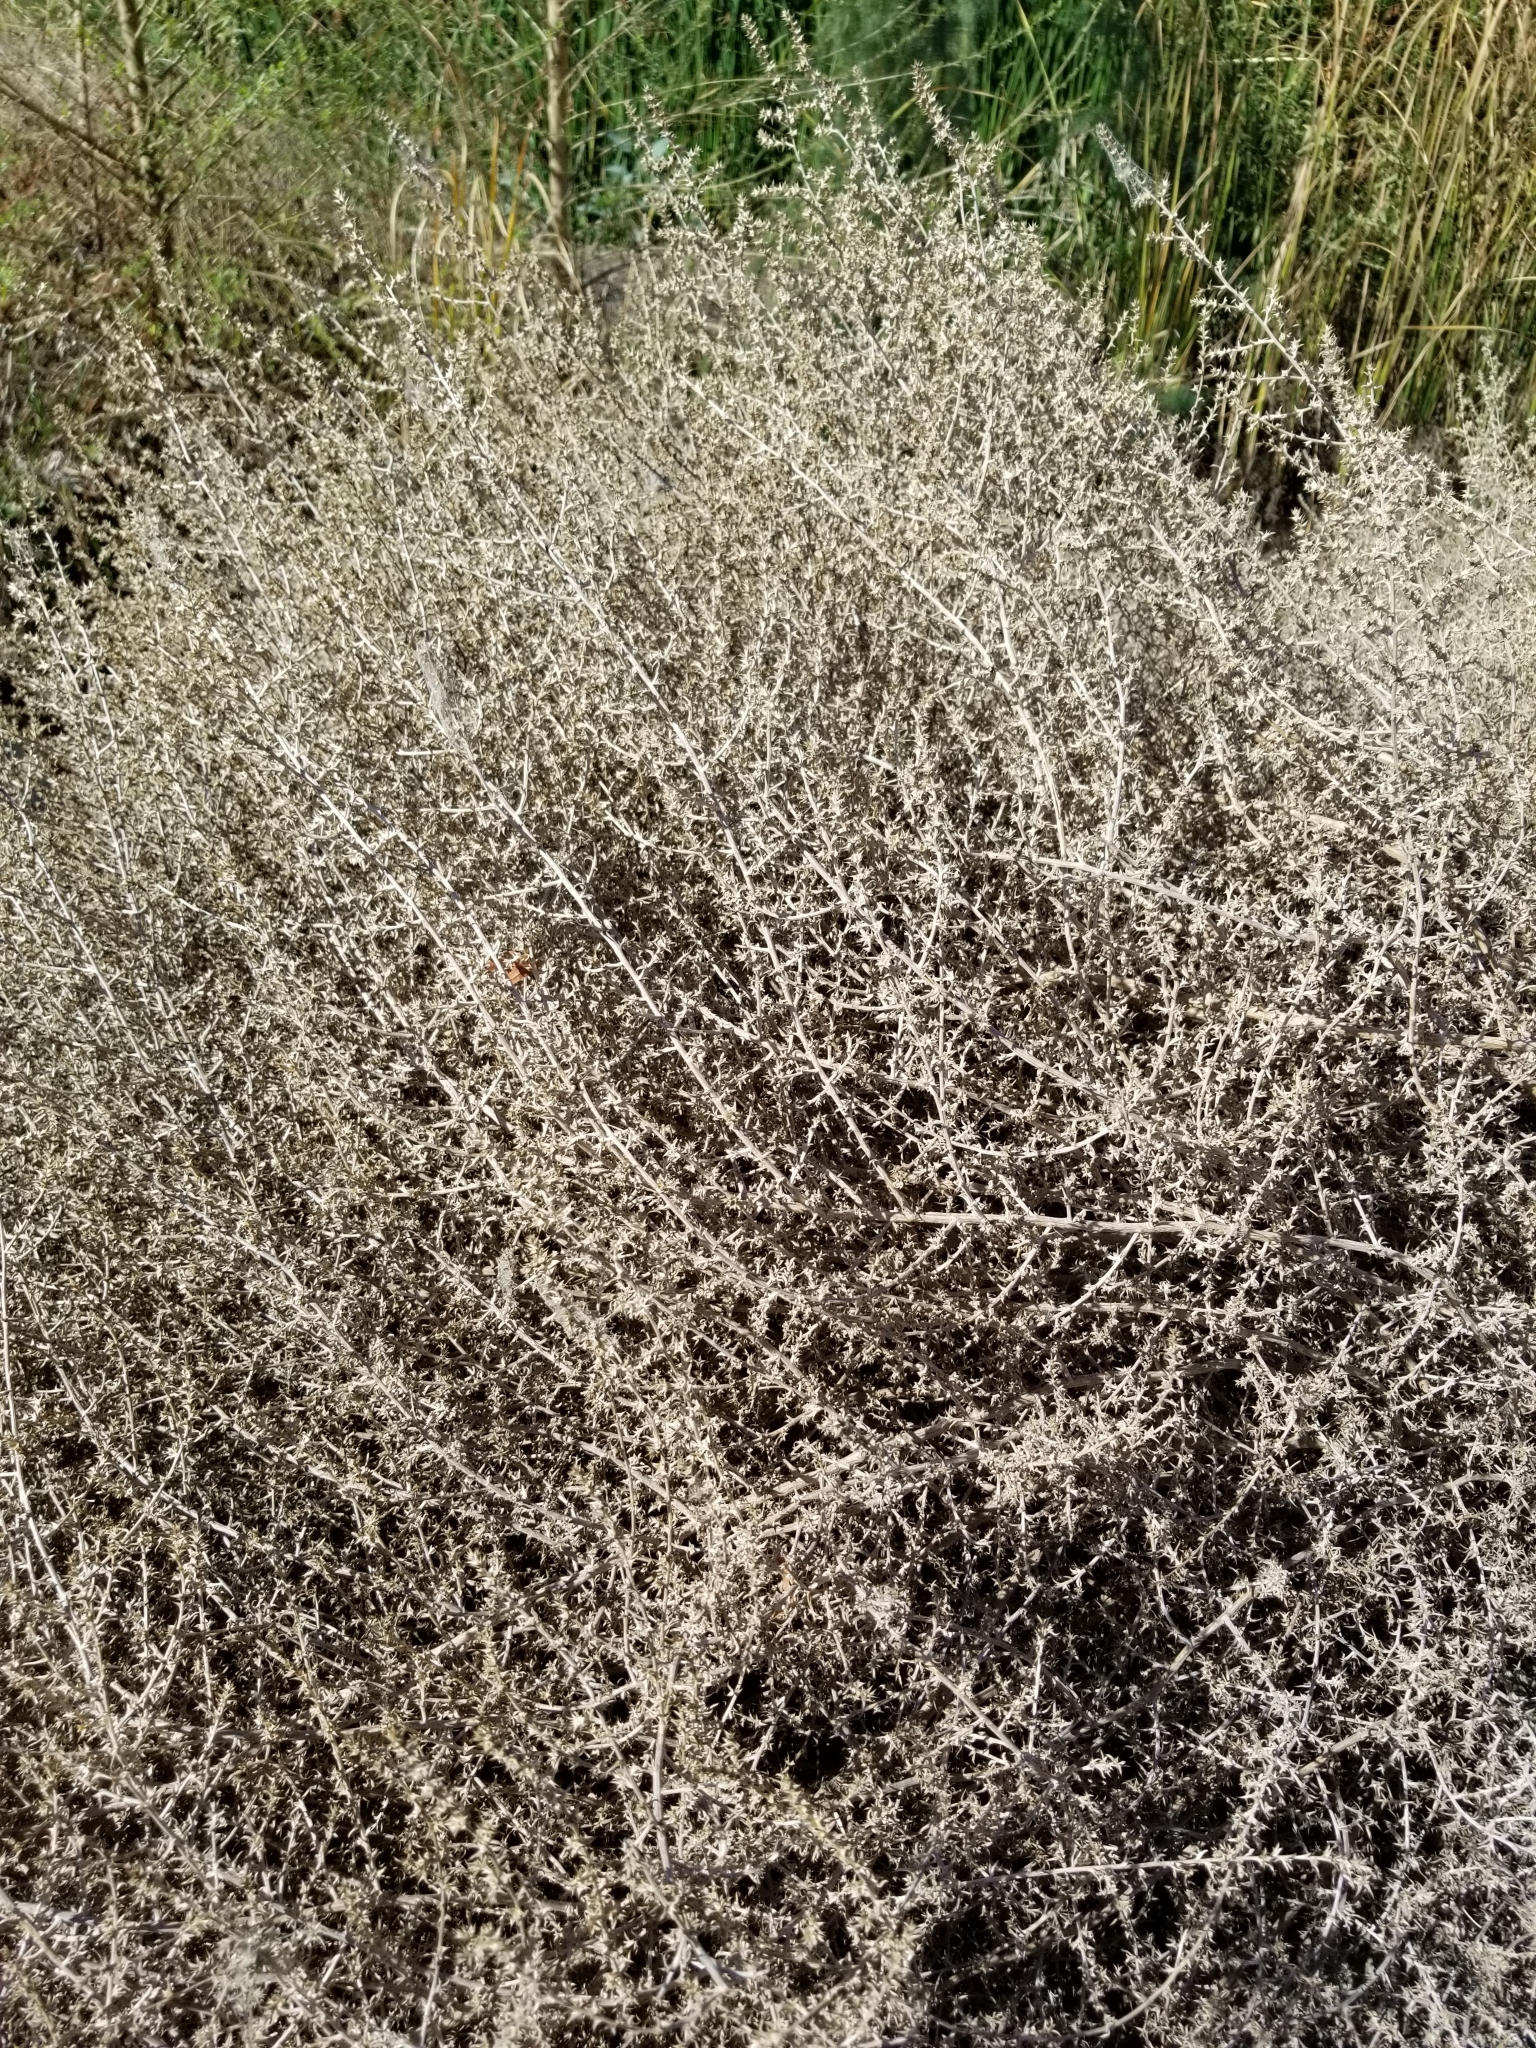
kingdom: Plantae
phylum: Tracheophyta
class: Magnoliopsida
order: Caryophyllales
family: Amaranthaceae
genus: Salsola
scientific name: Salsola tragus
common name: Prickly russian thistle
